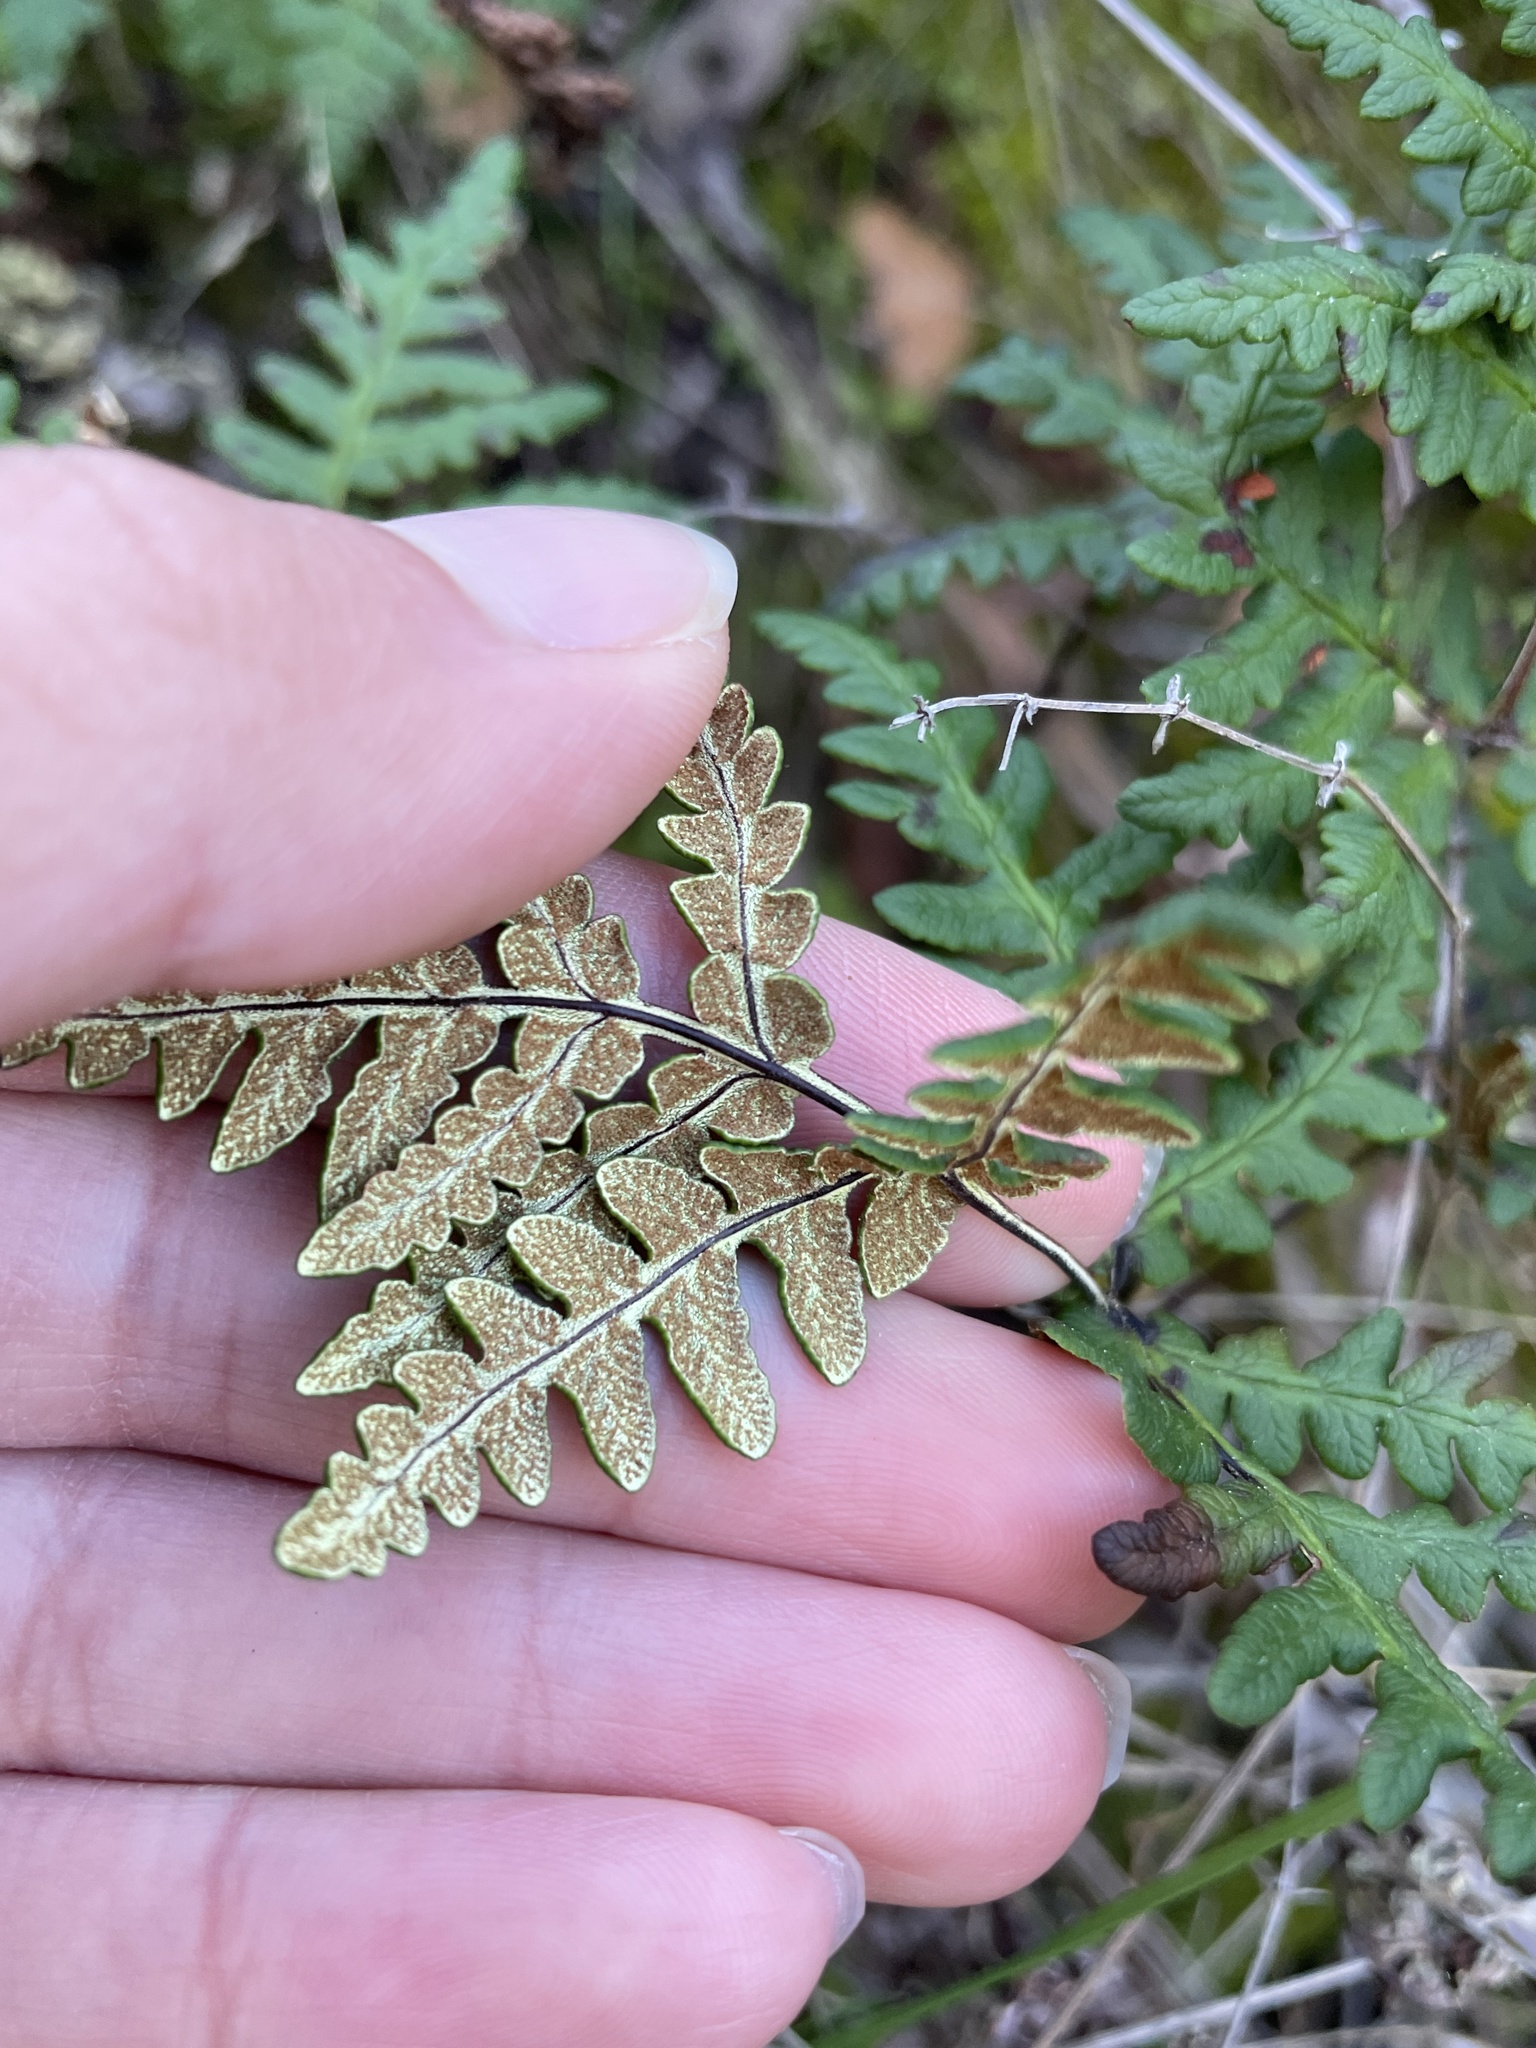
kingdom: Plantae
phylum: Tracheophyta
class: Polypodiopsida
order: Polypodiales
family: Pteridaceae
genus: Pentagramma
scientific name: Pentagramma triangularis
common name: Gold fern
